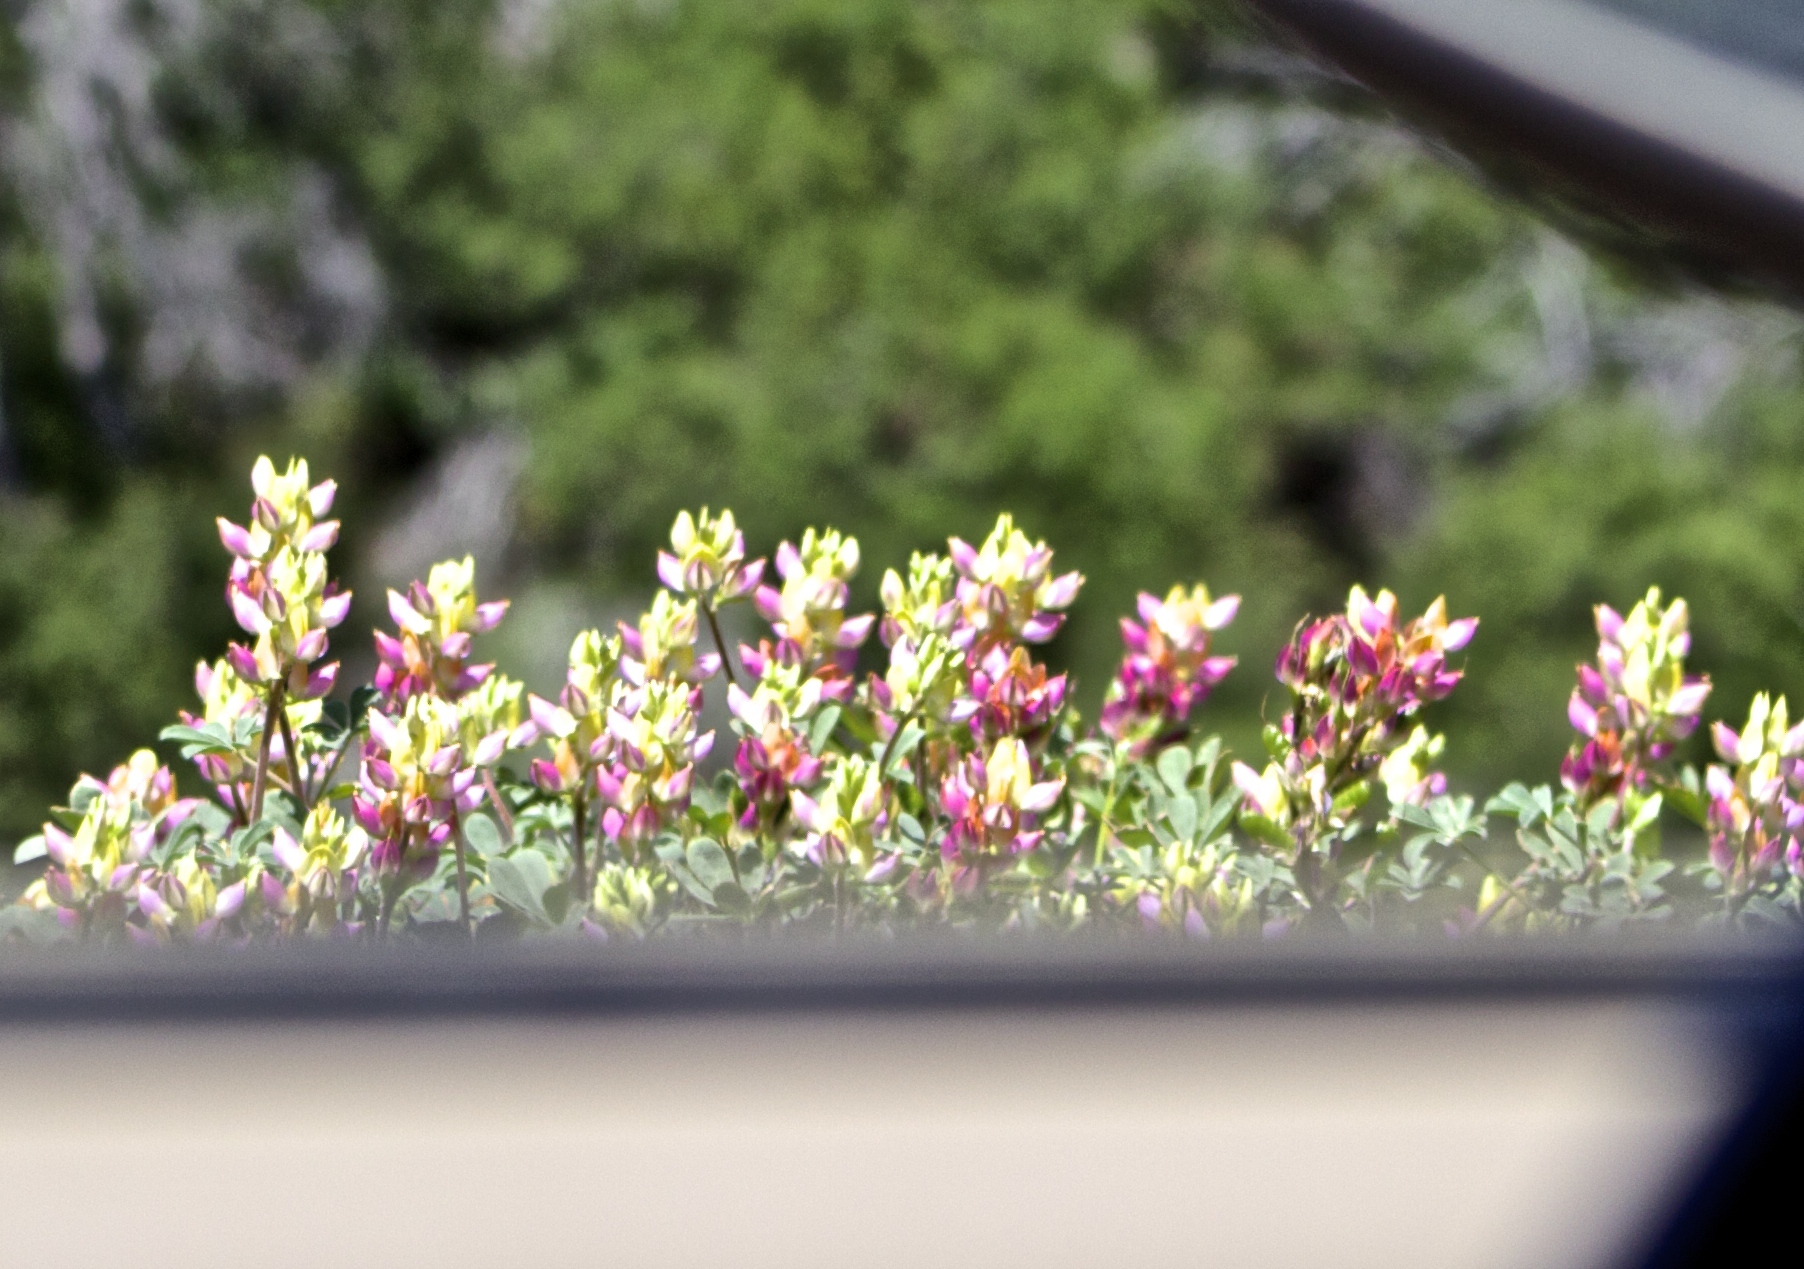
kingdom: Plantae
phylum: Tracheophyta
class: Magnoliopsida
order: Fabales
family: Fabaceae
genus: Lupinus
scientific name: Lupinus stiversii
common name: Harlequin lupine
